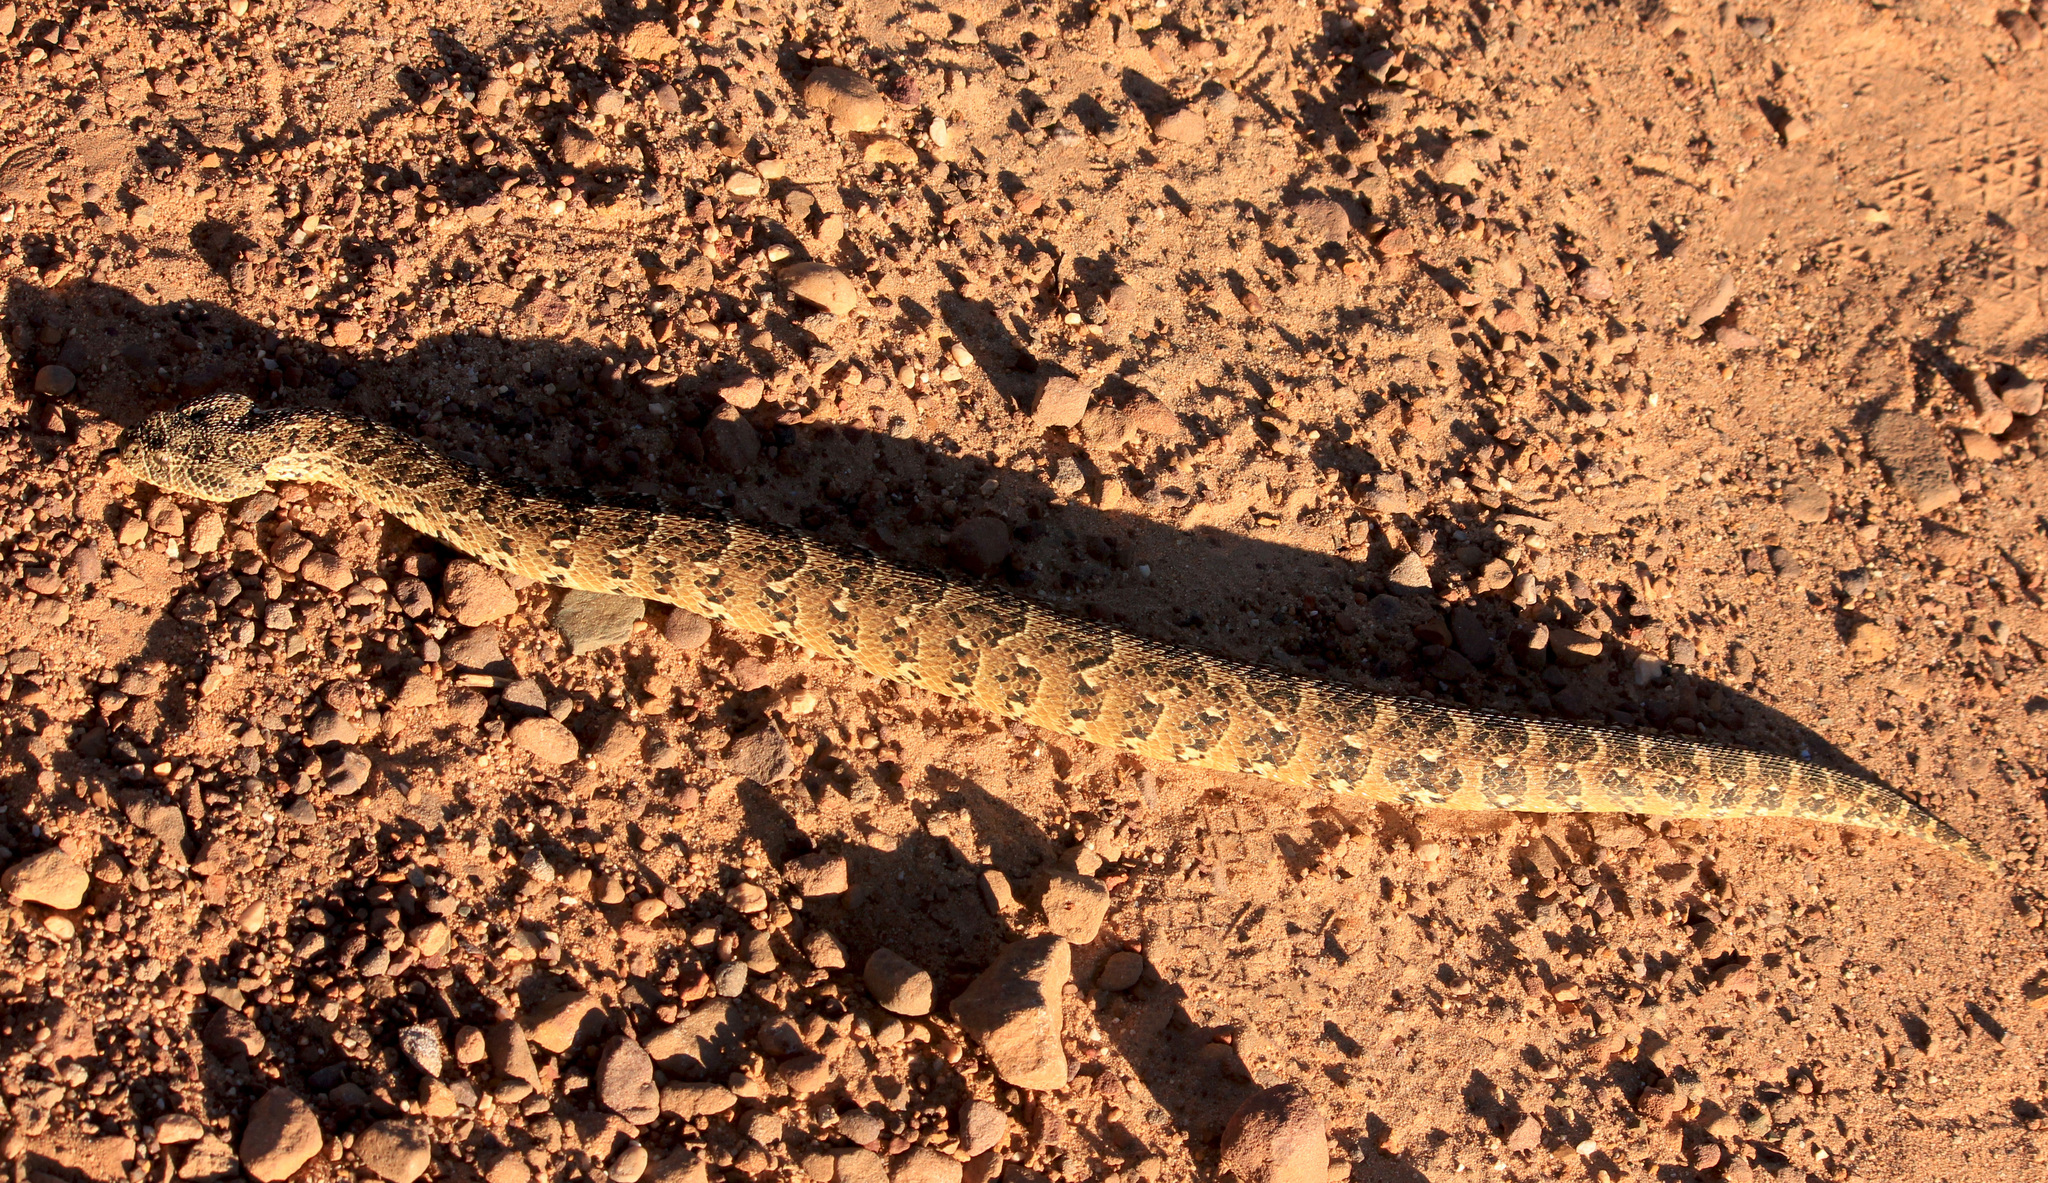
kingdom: Animalia
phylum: Chordata
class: Squamata
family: Viperidae
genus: Bitis
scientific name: Bitis arietans
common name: Puff adder
